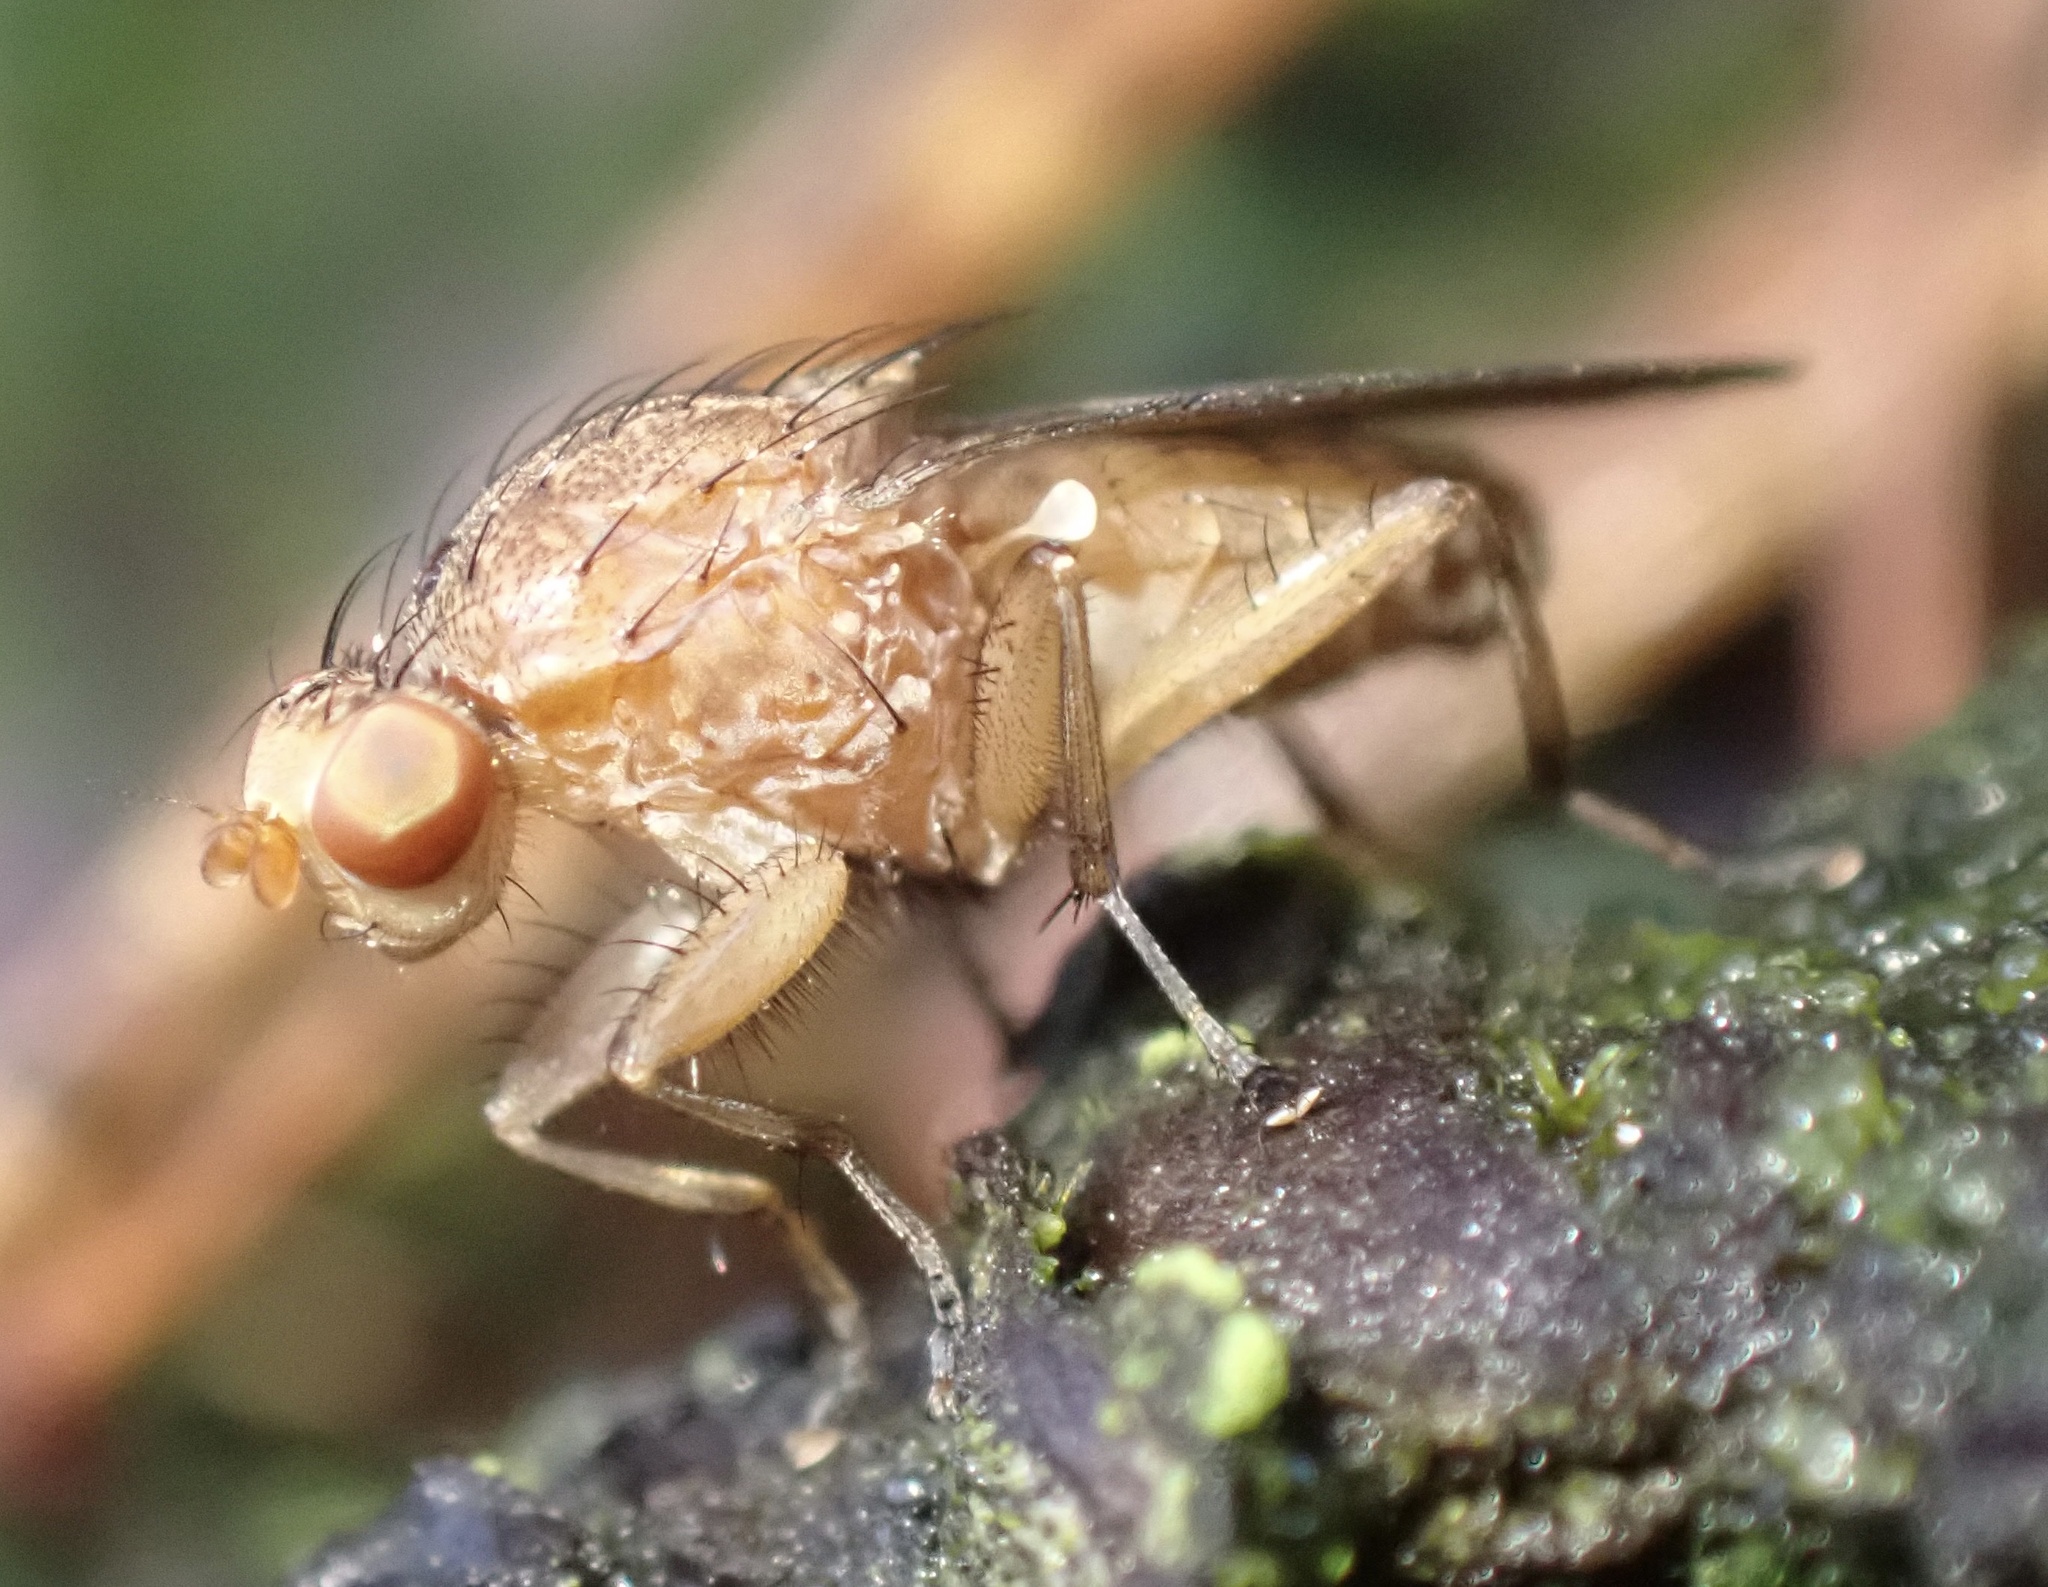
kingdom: Animalia
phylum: Arthropoda
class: Insecta
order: Diptera
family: Heleomyzidae
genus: Suillia
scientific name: Suillia affinis
